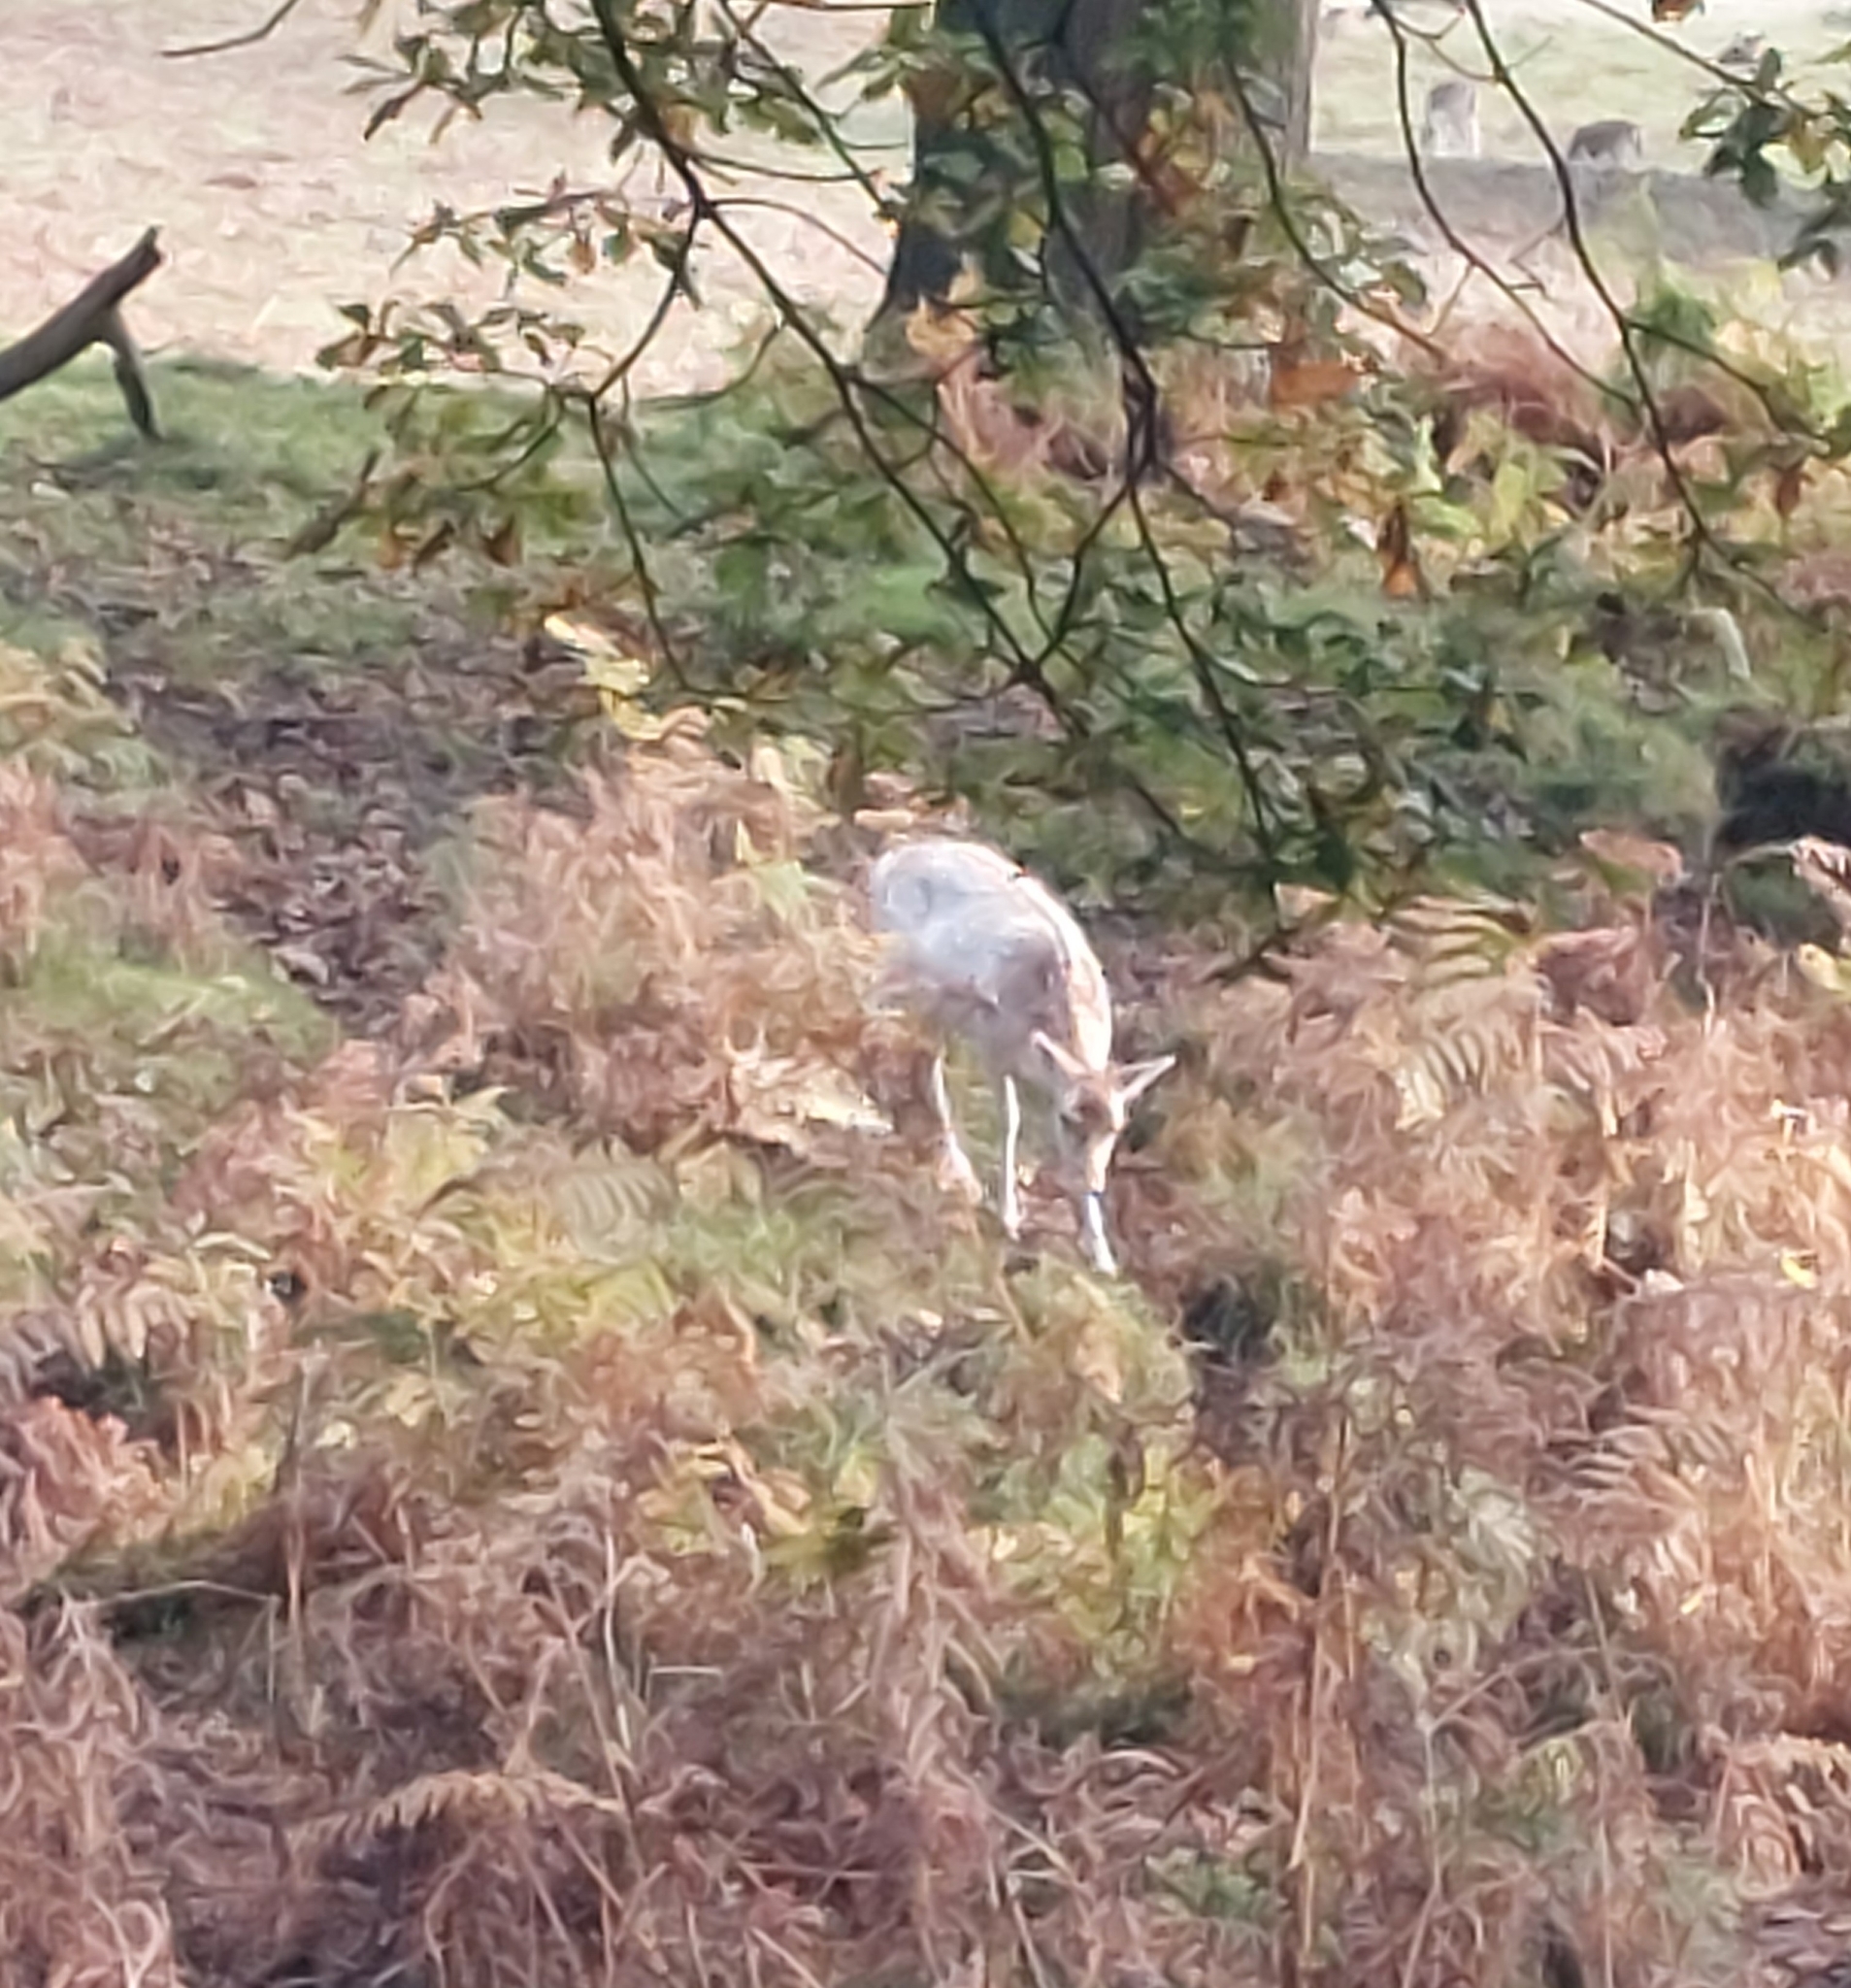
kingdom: Animalia
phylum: Chordata
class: Mammalia
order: Artiodactyla
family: Cervidae
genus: Dama
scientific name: Dama dama
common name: Fallow deer
